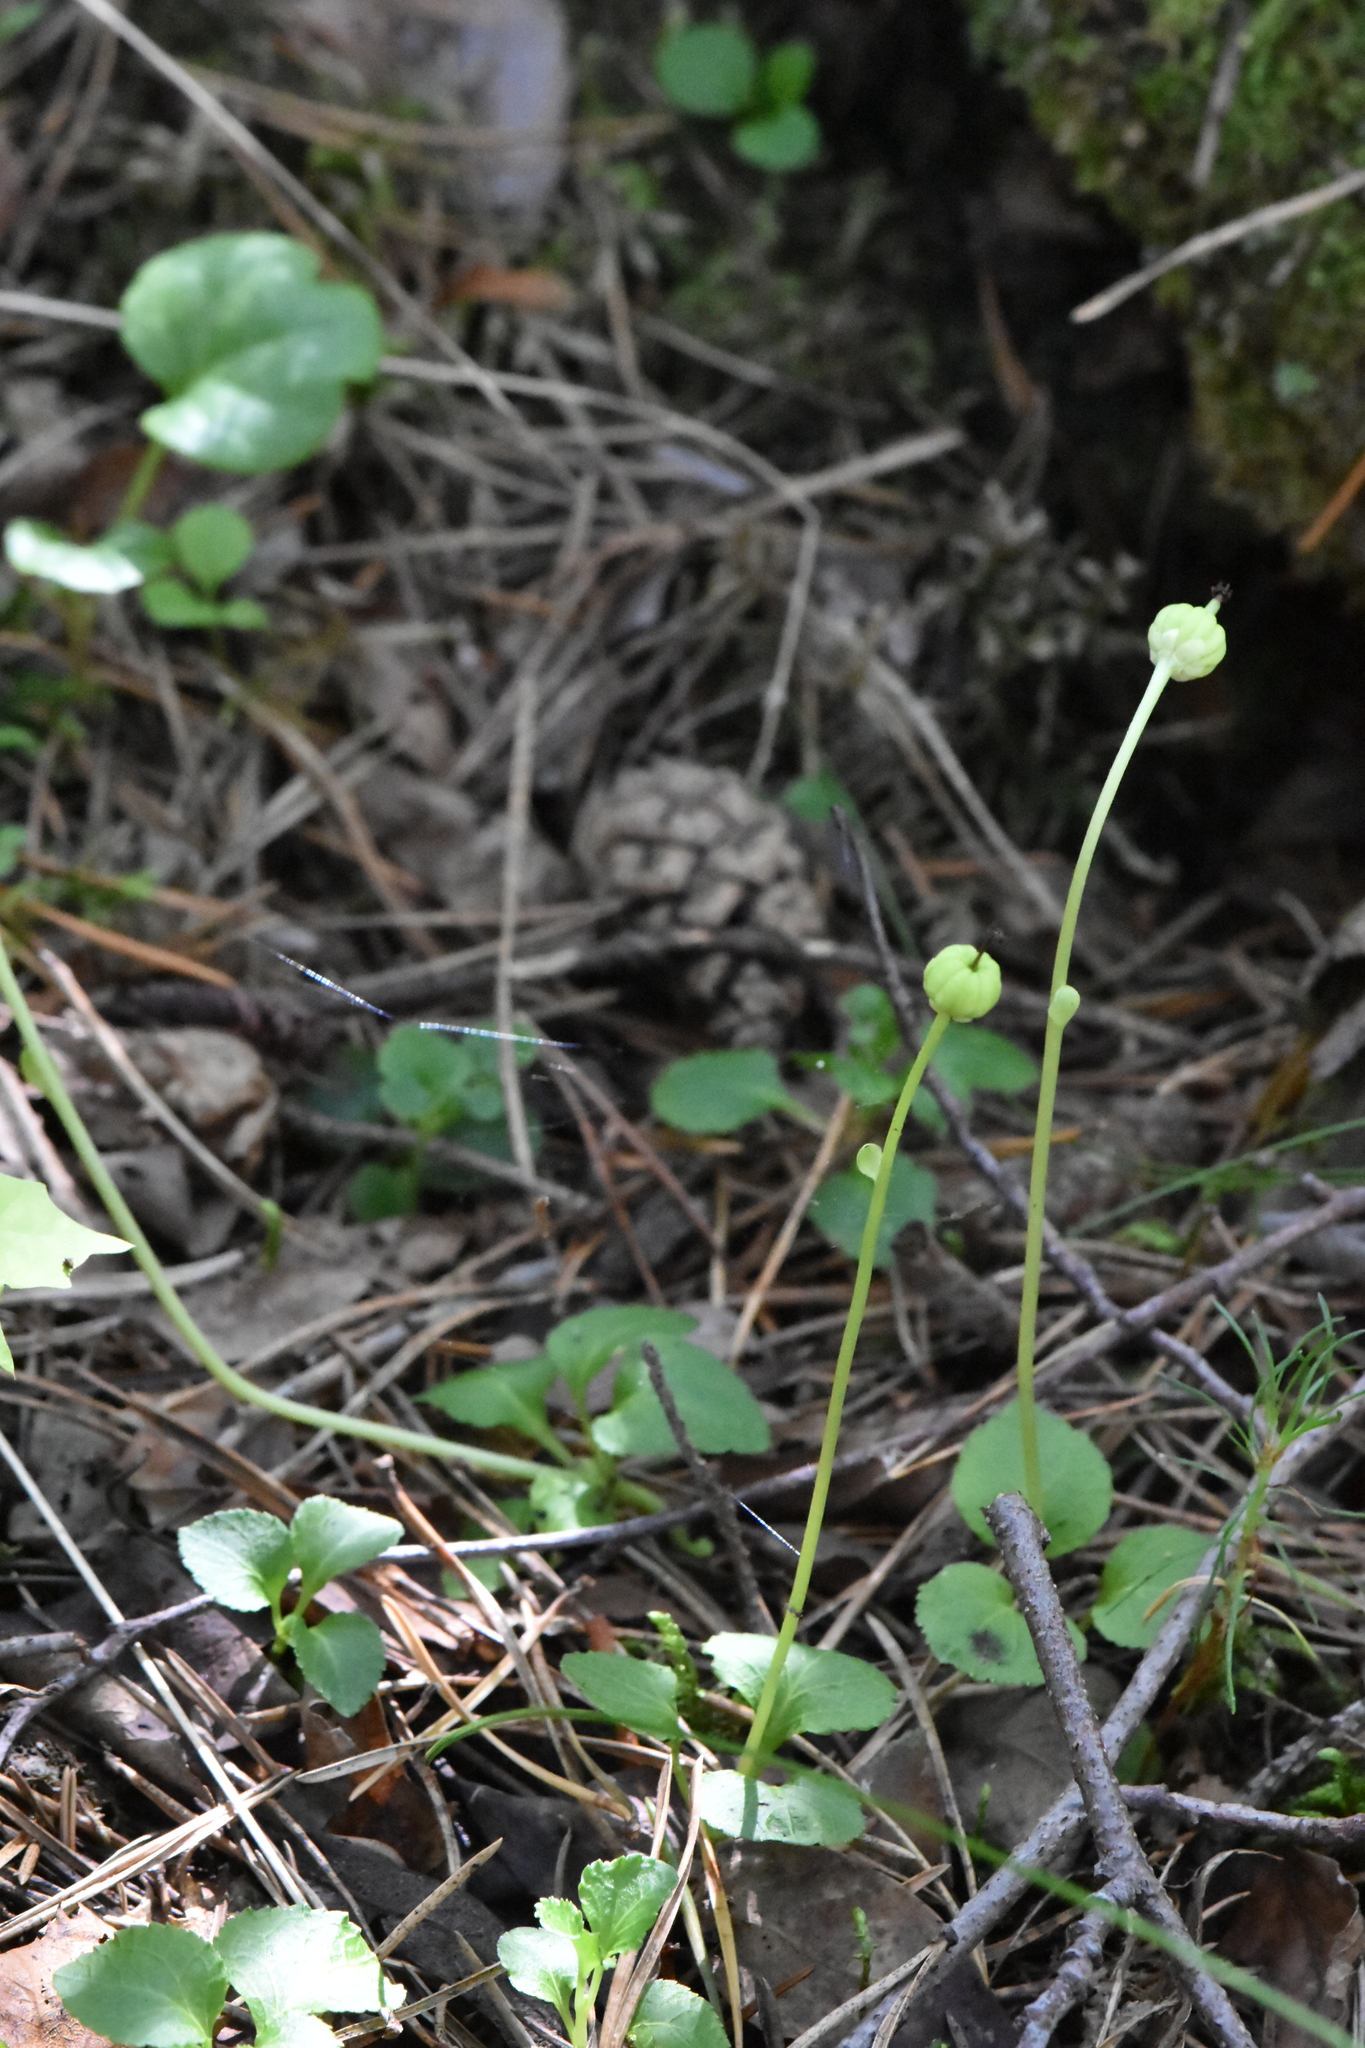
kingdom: Plantae
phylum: Tracheophyta
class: Magnoliopsida
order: Ericales
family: Ericaceae
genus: Moneses
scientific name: Moneses uniflora
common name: One-flowered wintergreen
